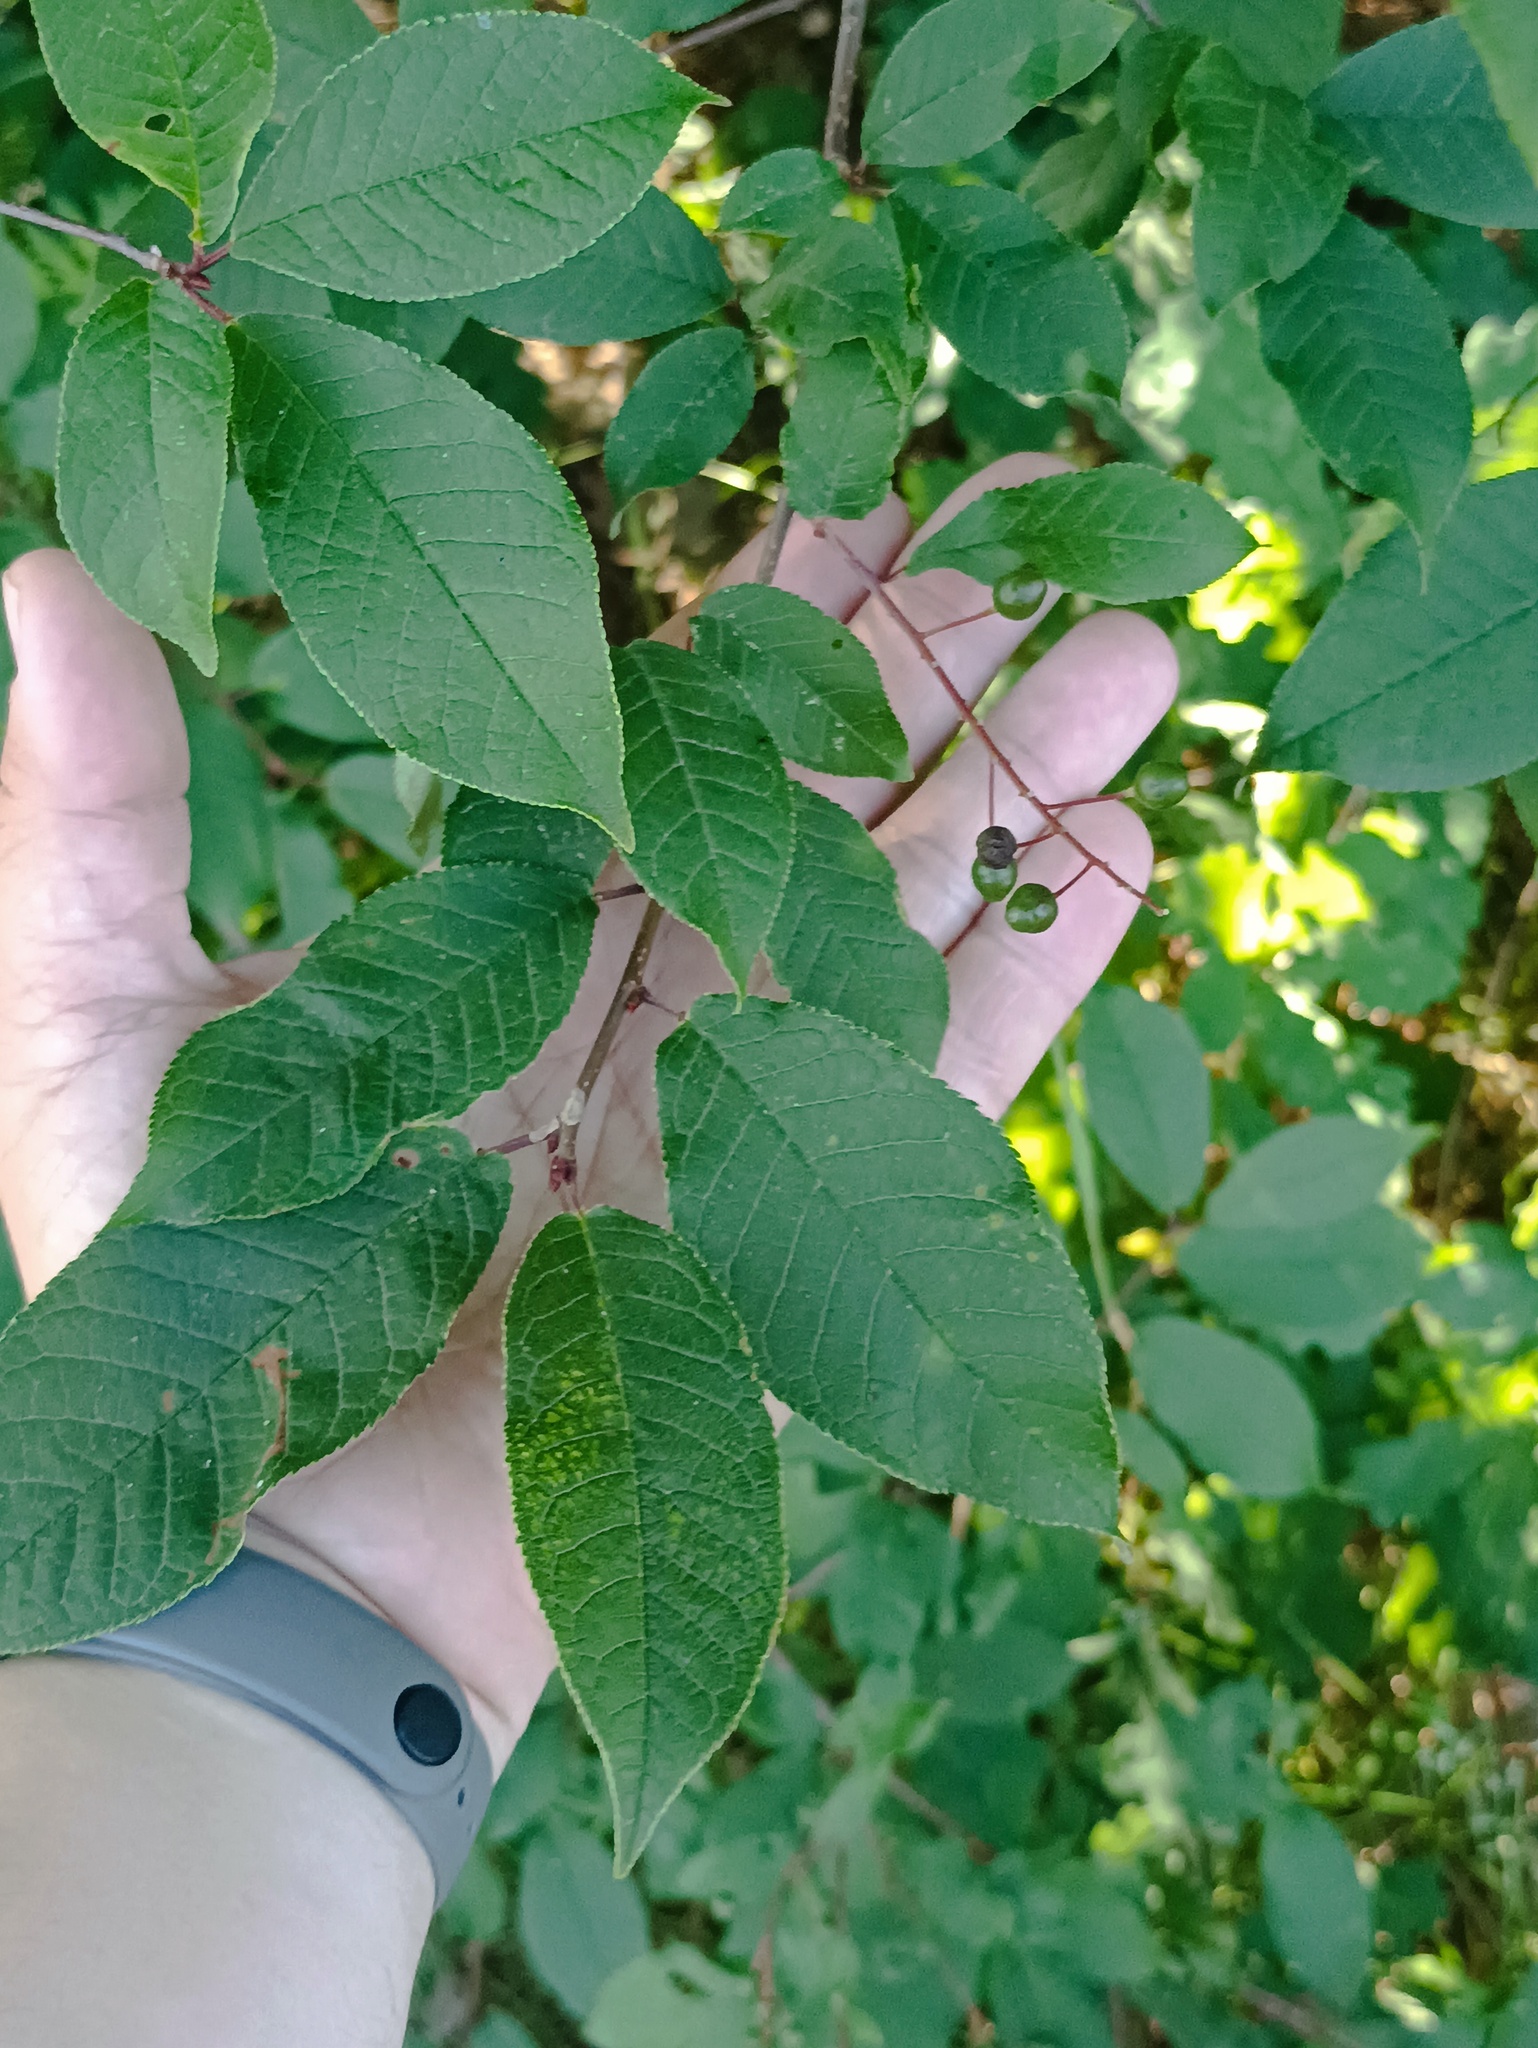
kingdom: Plantae
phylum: Tracheophyta
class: Magnoliopsida
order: Rosales
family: Rosaceae
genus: Prunus
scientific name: Prunus padus
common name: Bird cherry
